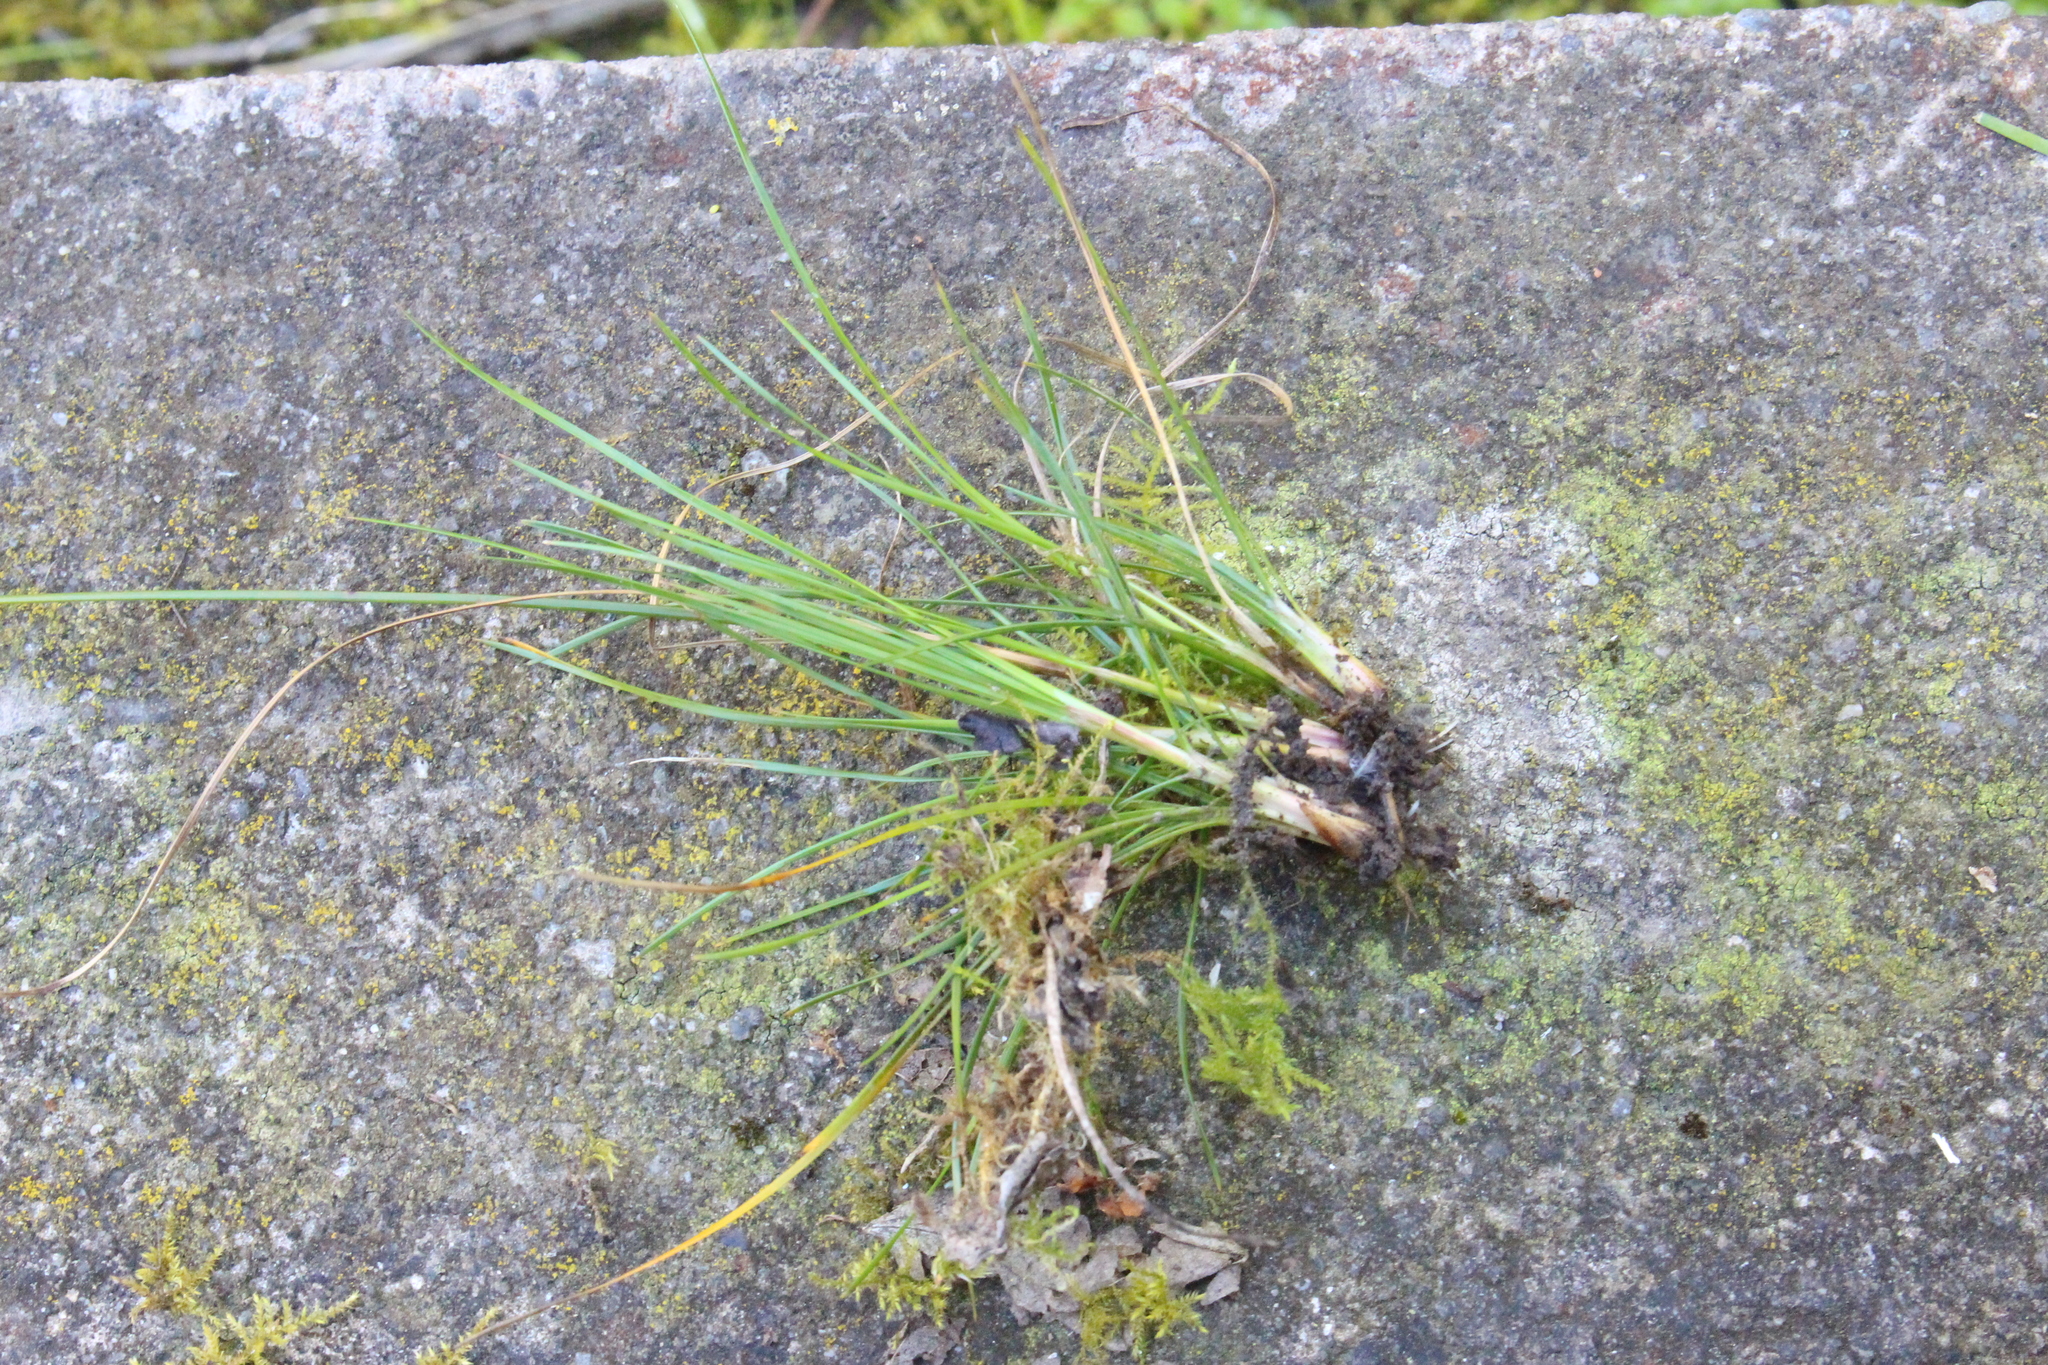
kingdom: Plantae
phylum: Tracheophyta
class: Liliopsida
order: Poales
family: Juncaceae
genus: Juncus
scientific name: Juncus tenuis
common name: Slender rush
